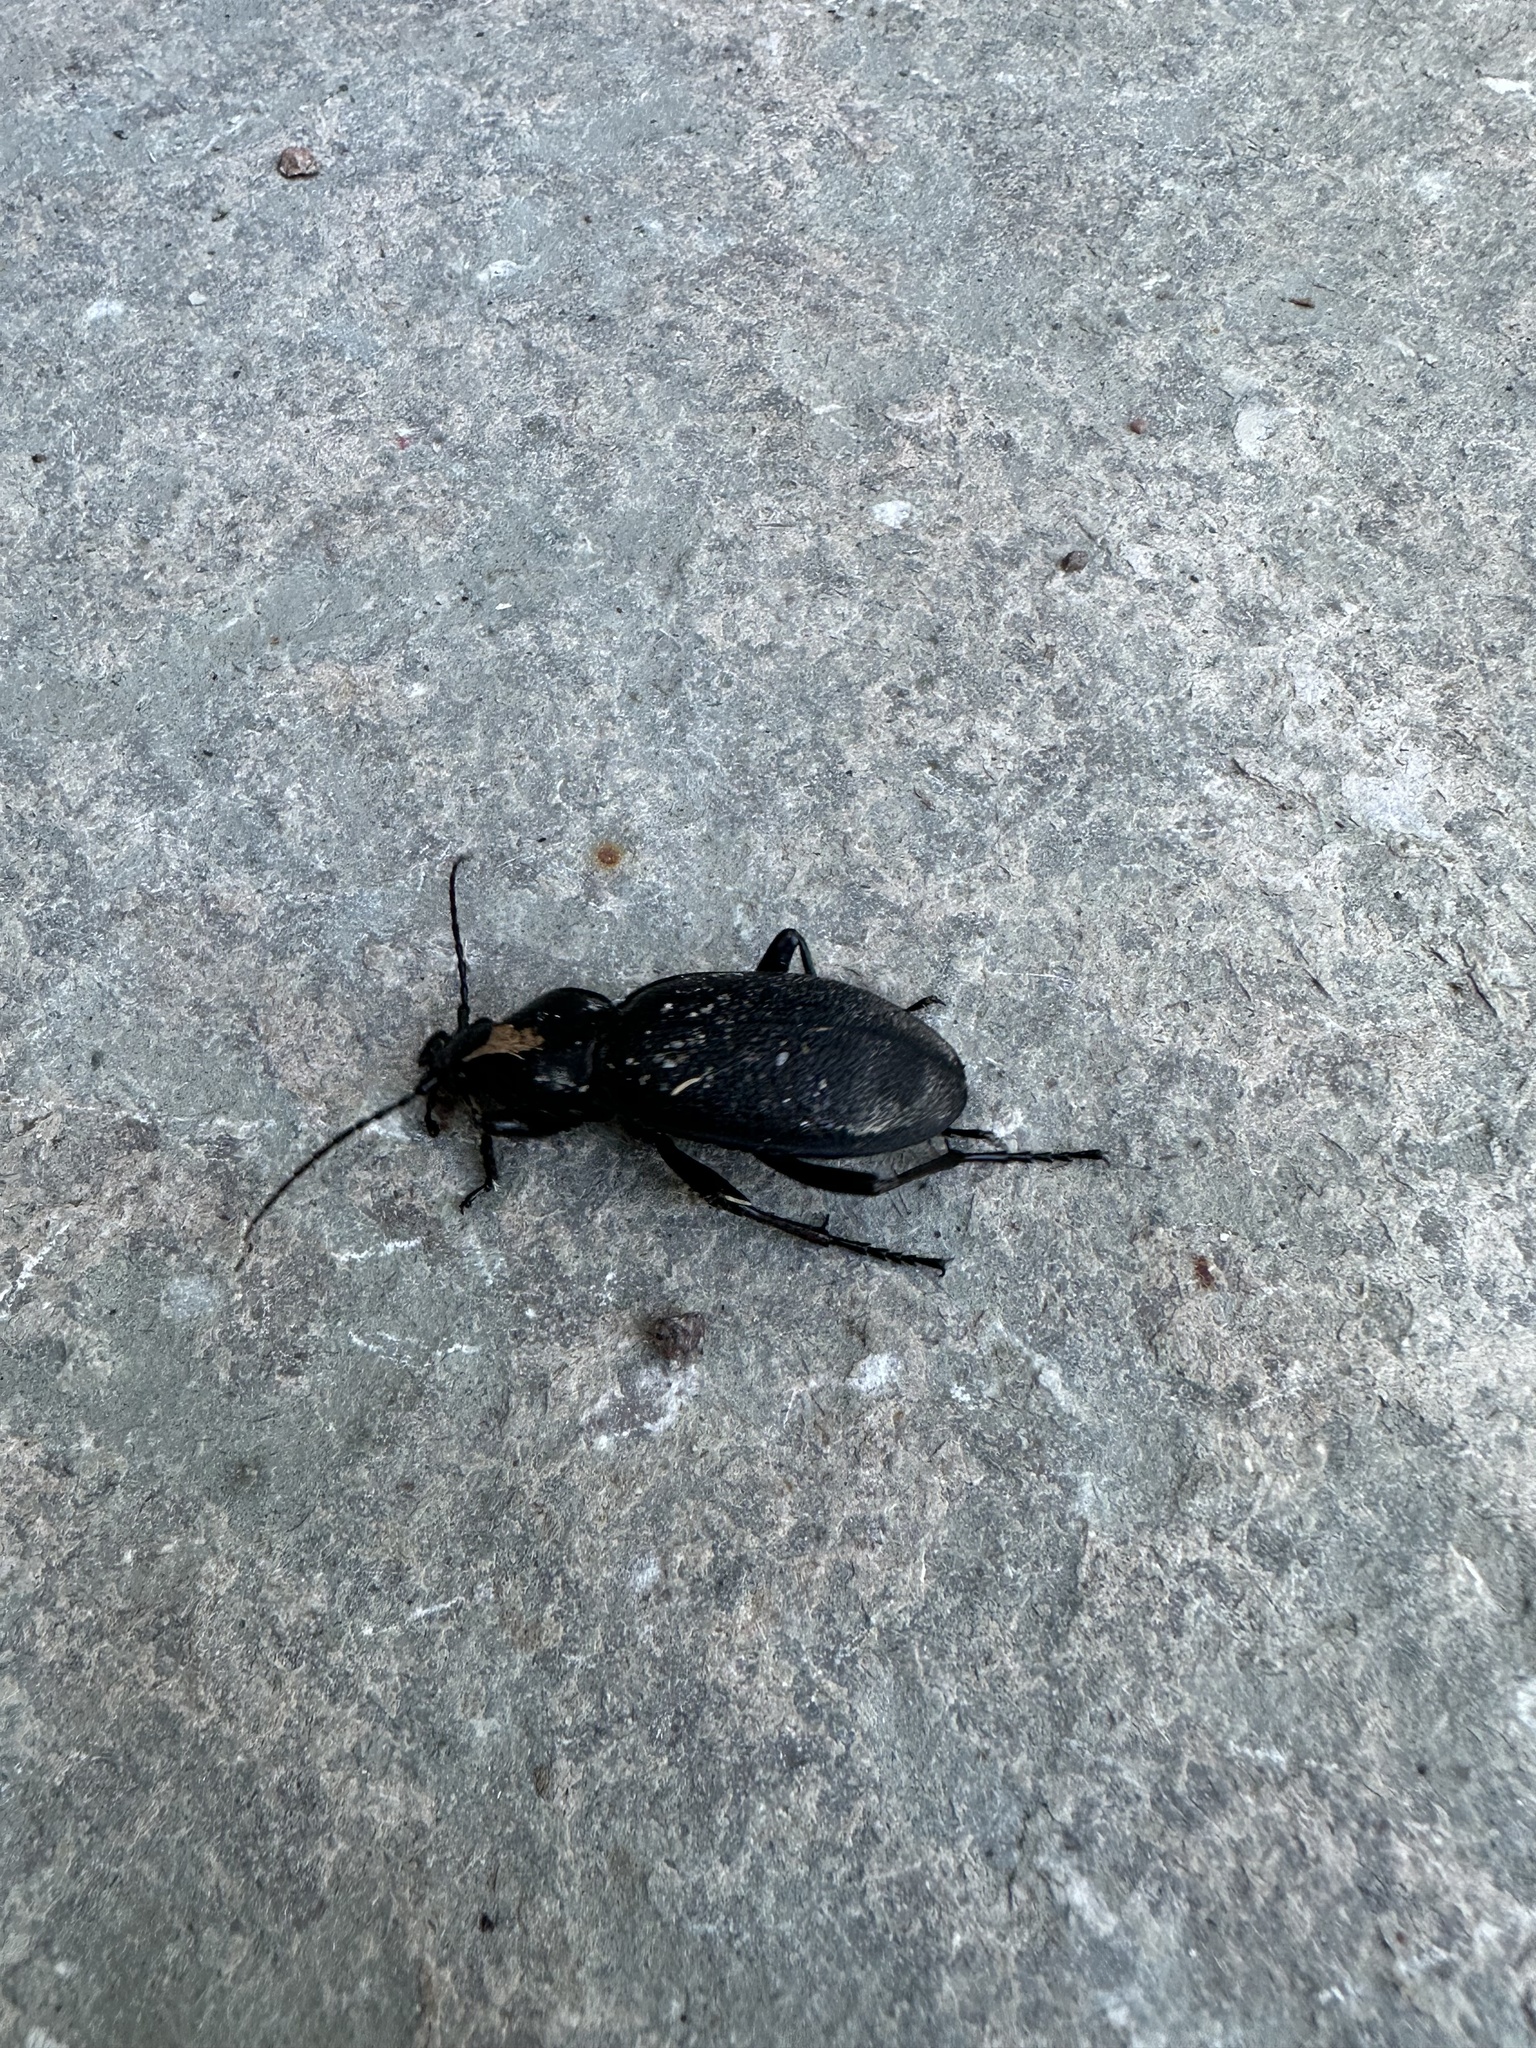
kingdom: Animalia
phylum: Arthropoda
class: Insecta
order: Coleoptera
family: Carabidae
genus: Carabus
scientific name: Carabus coriaceus
